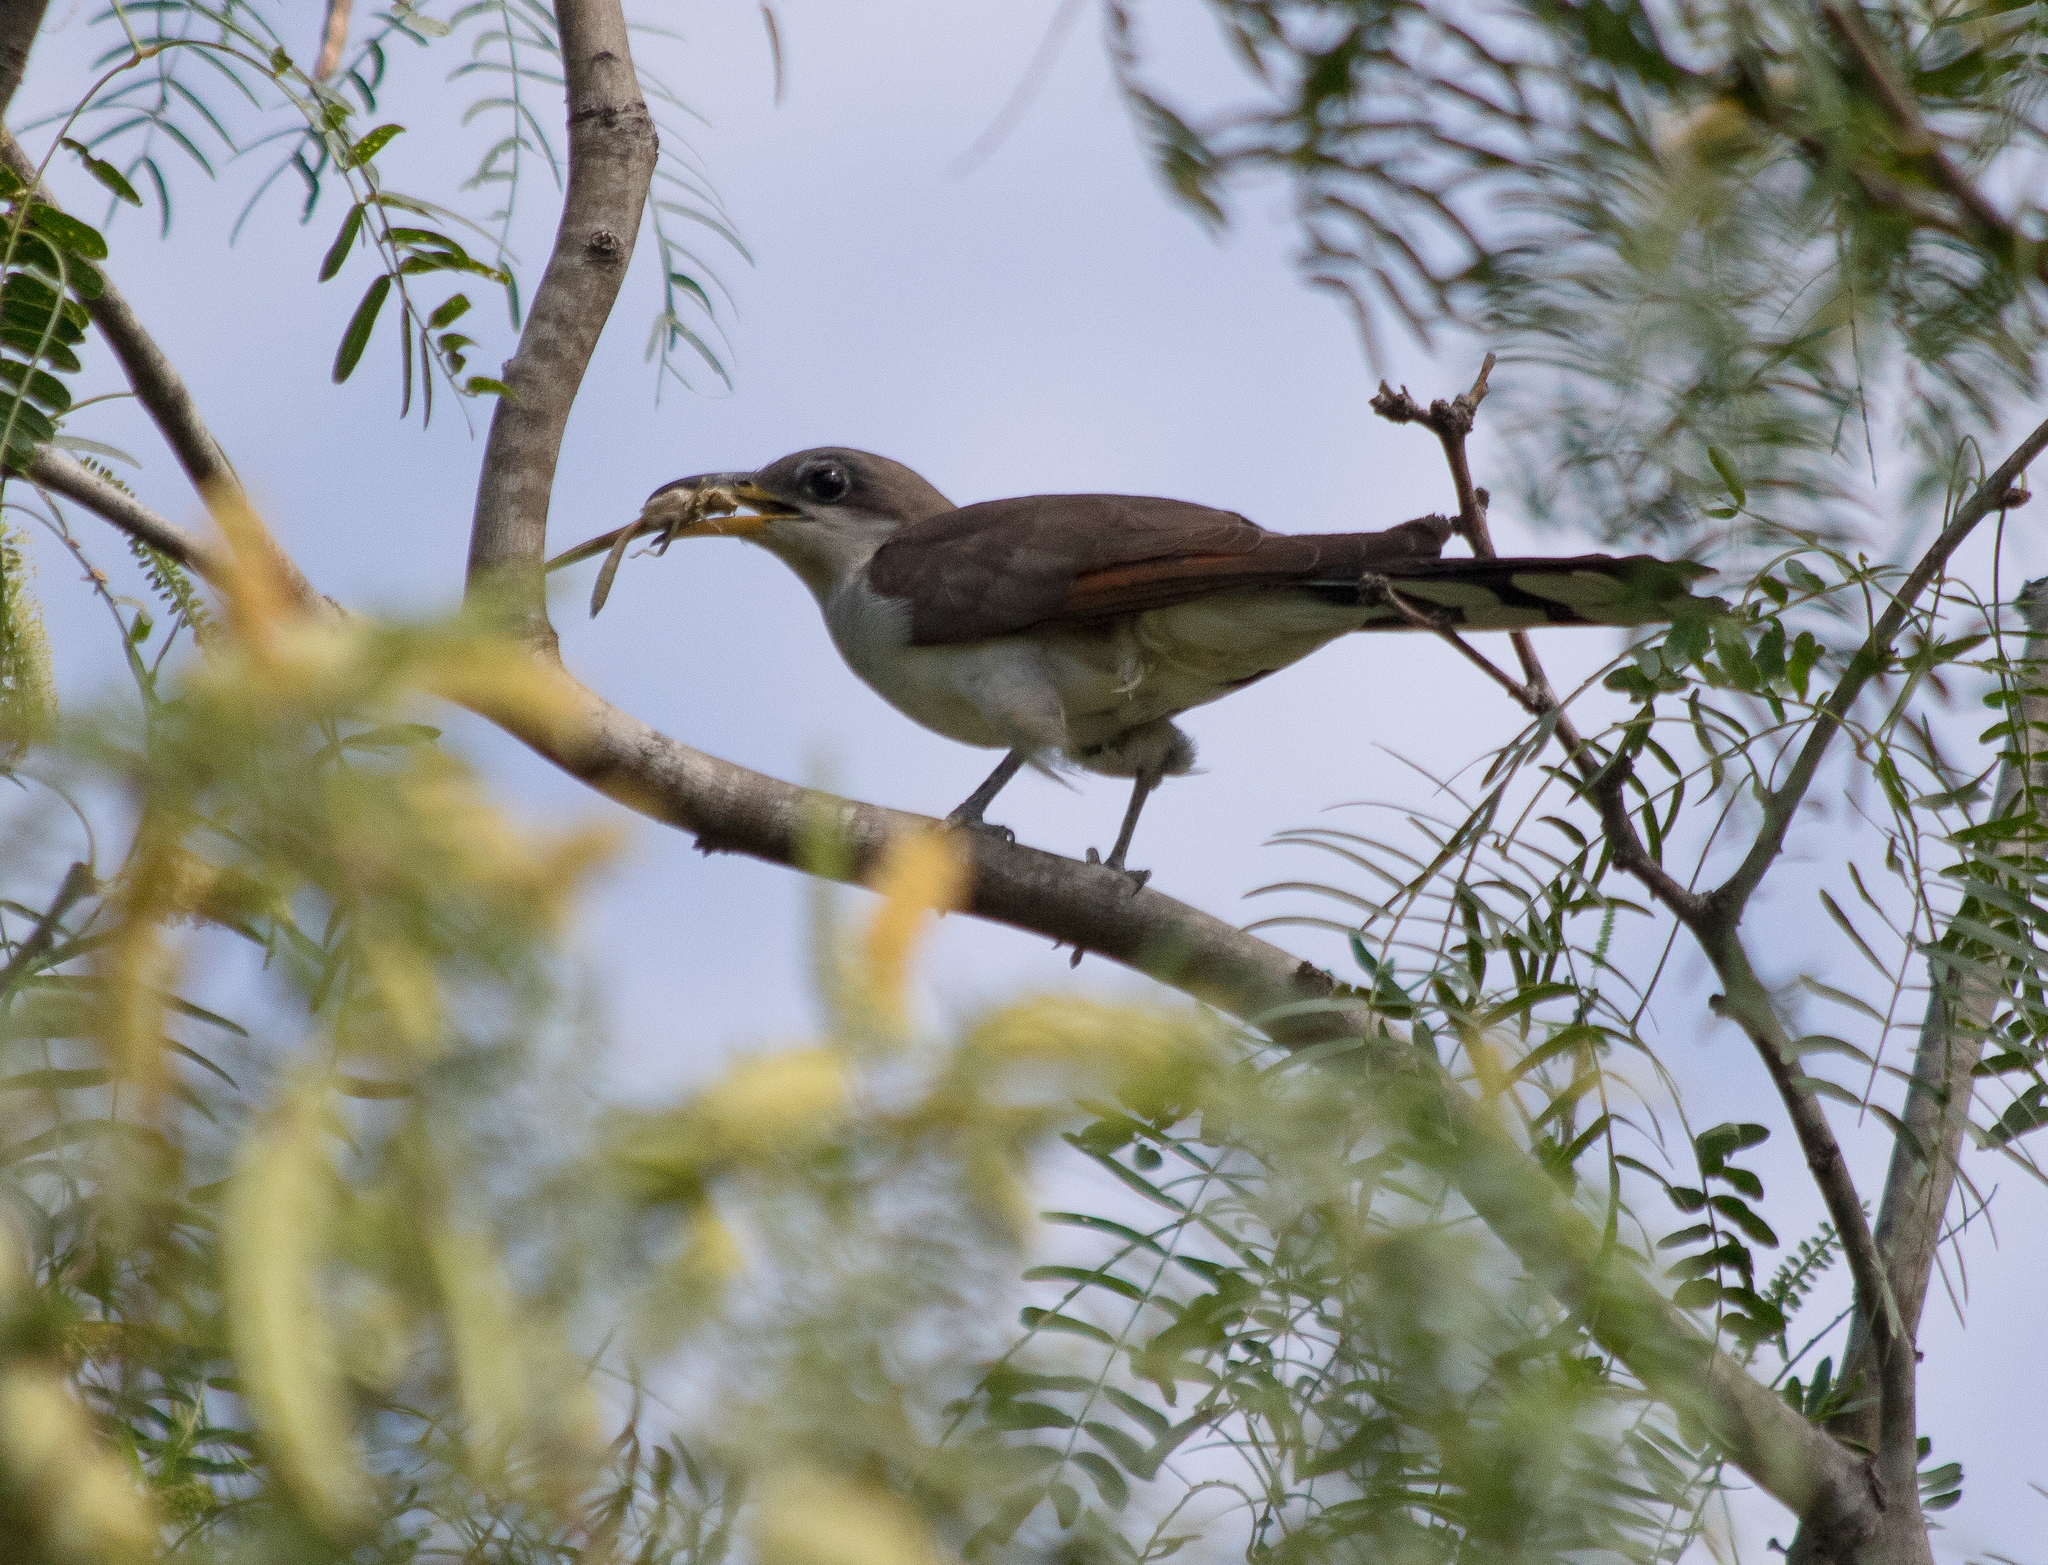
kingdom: Animalia
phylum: Chordata
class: Aves
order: Cuculiformes
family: Cuculidae
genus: Coccyzus
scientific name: Coccyzus americanus
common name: Yellow-billed cuckoo
